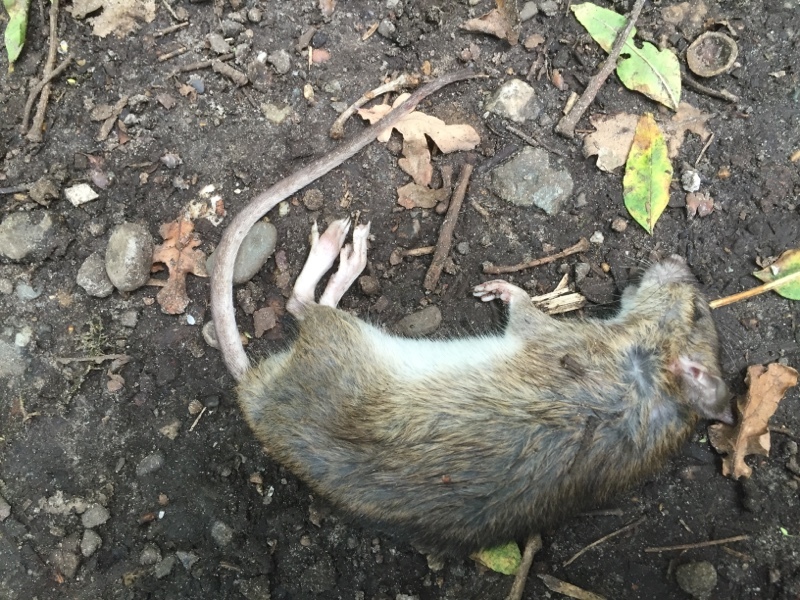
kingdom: Animalia
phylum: Chordata
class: Mammalia
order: Rodentia
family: Muridae
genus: Rattus
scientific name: Rattus norvegicus
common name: Brown rat
